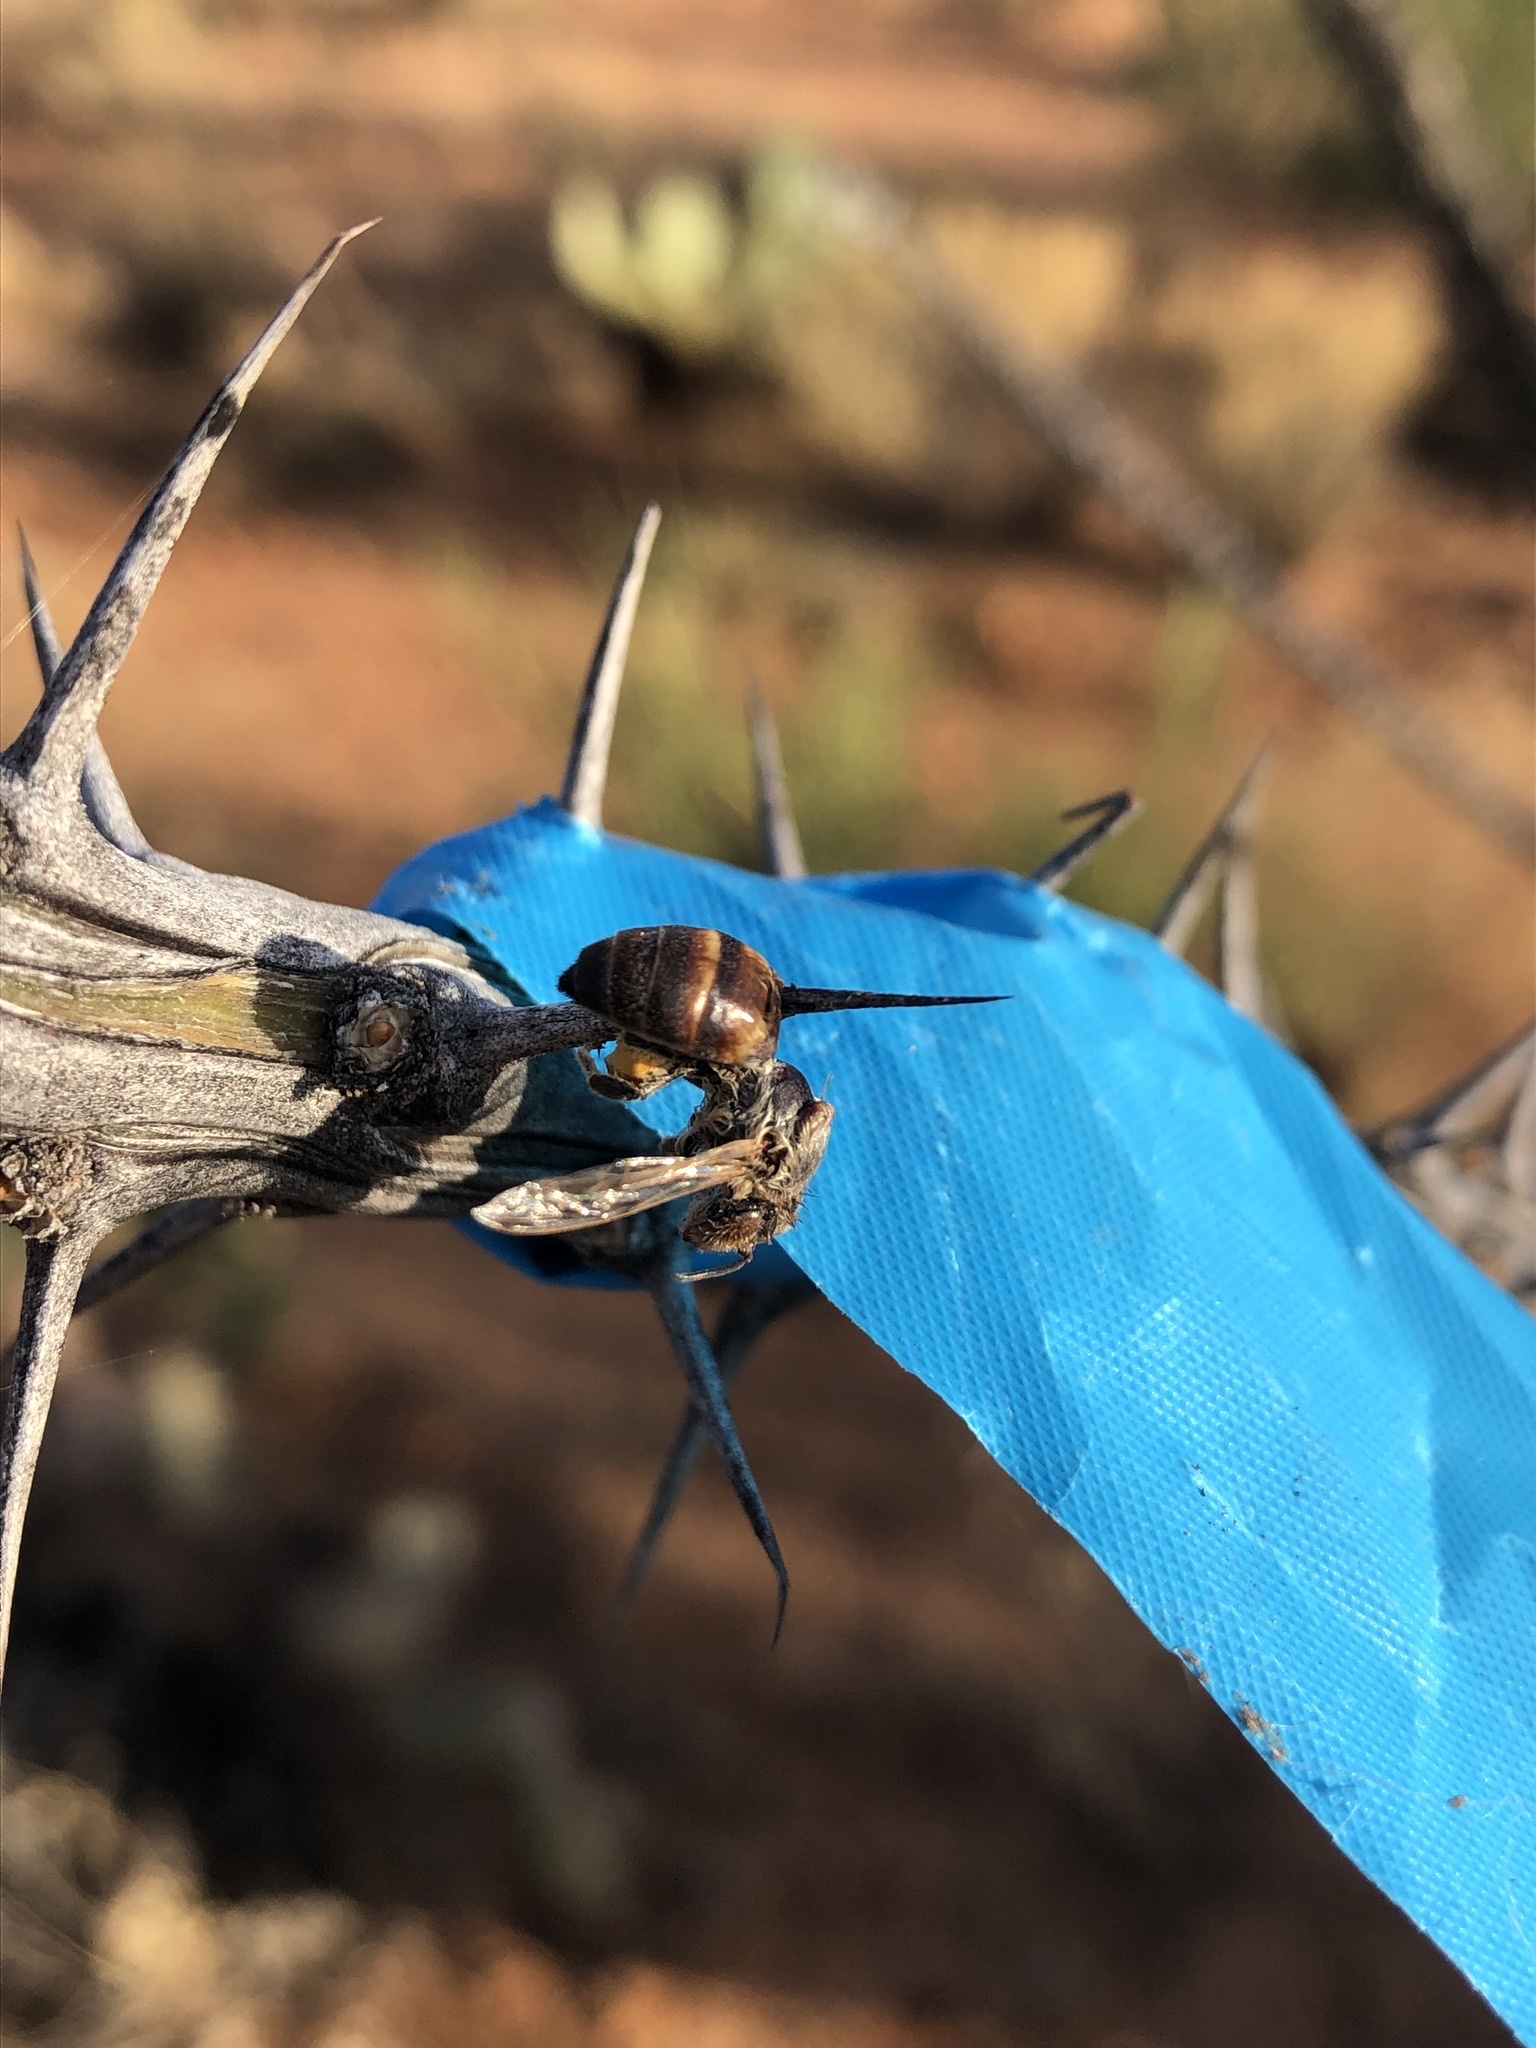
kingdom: Animalia
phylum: Arthropoda
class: Insecta
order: Hymenoptera
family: Apidae
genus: Apis
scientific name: Apis mellifera
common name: Honey bee
